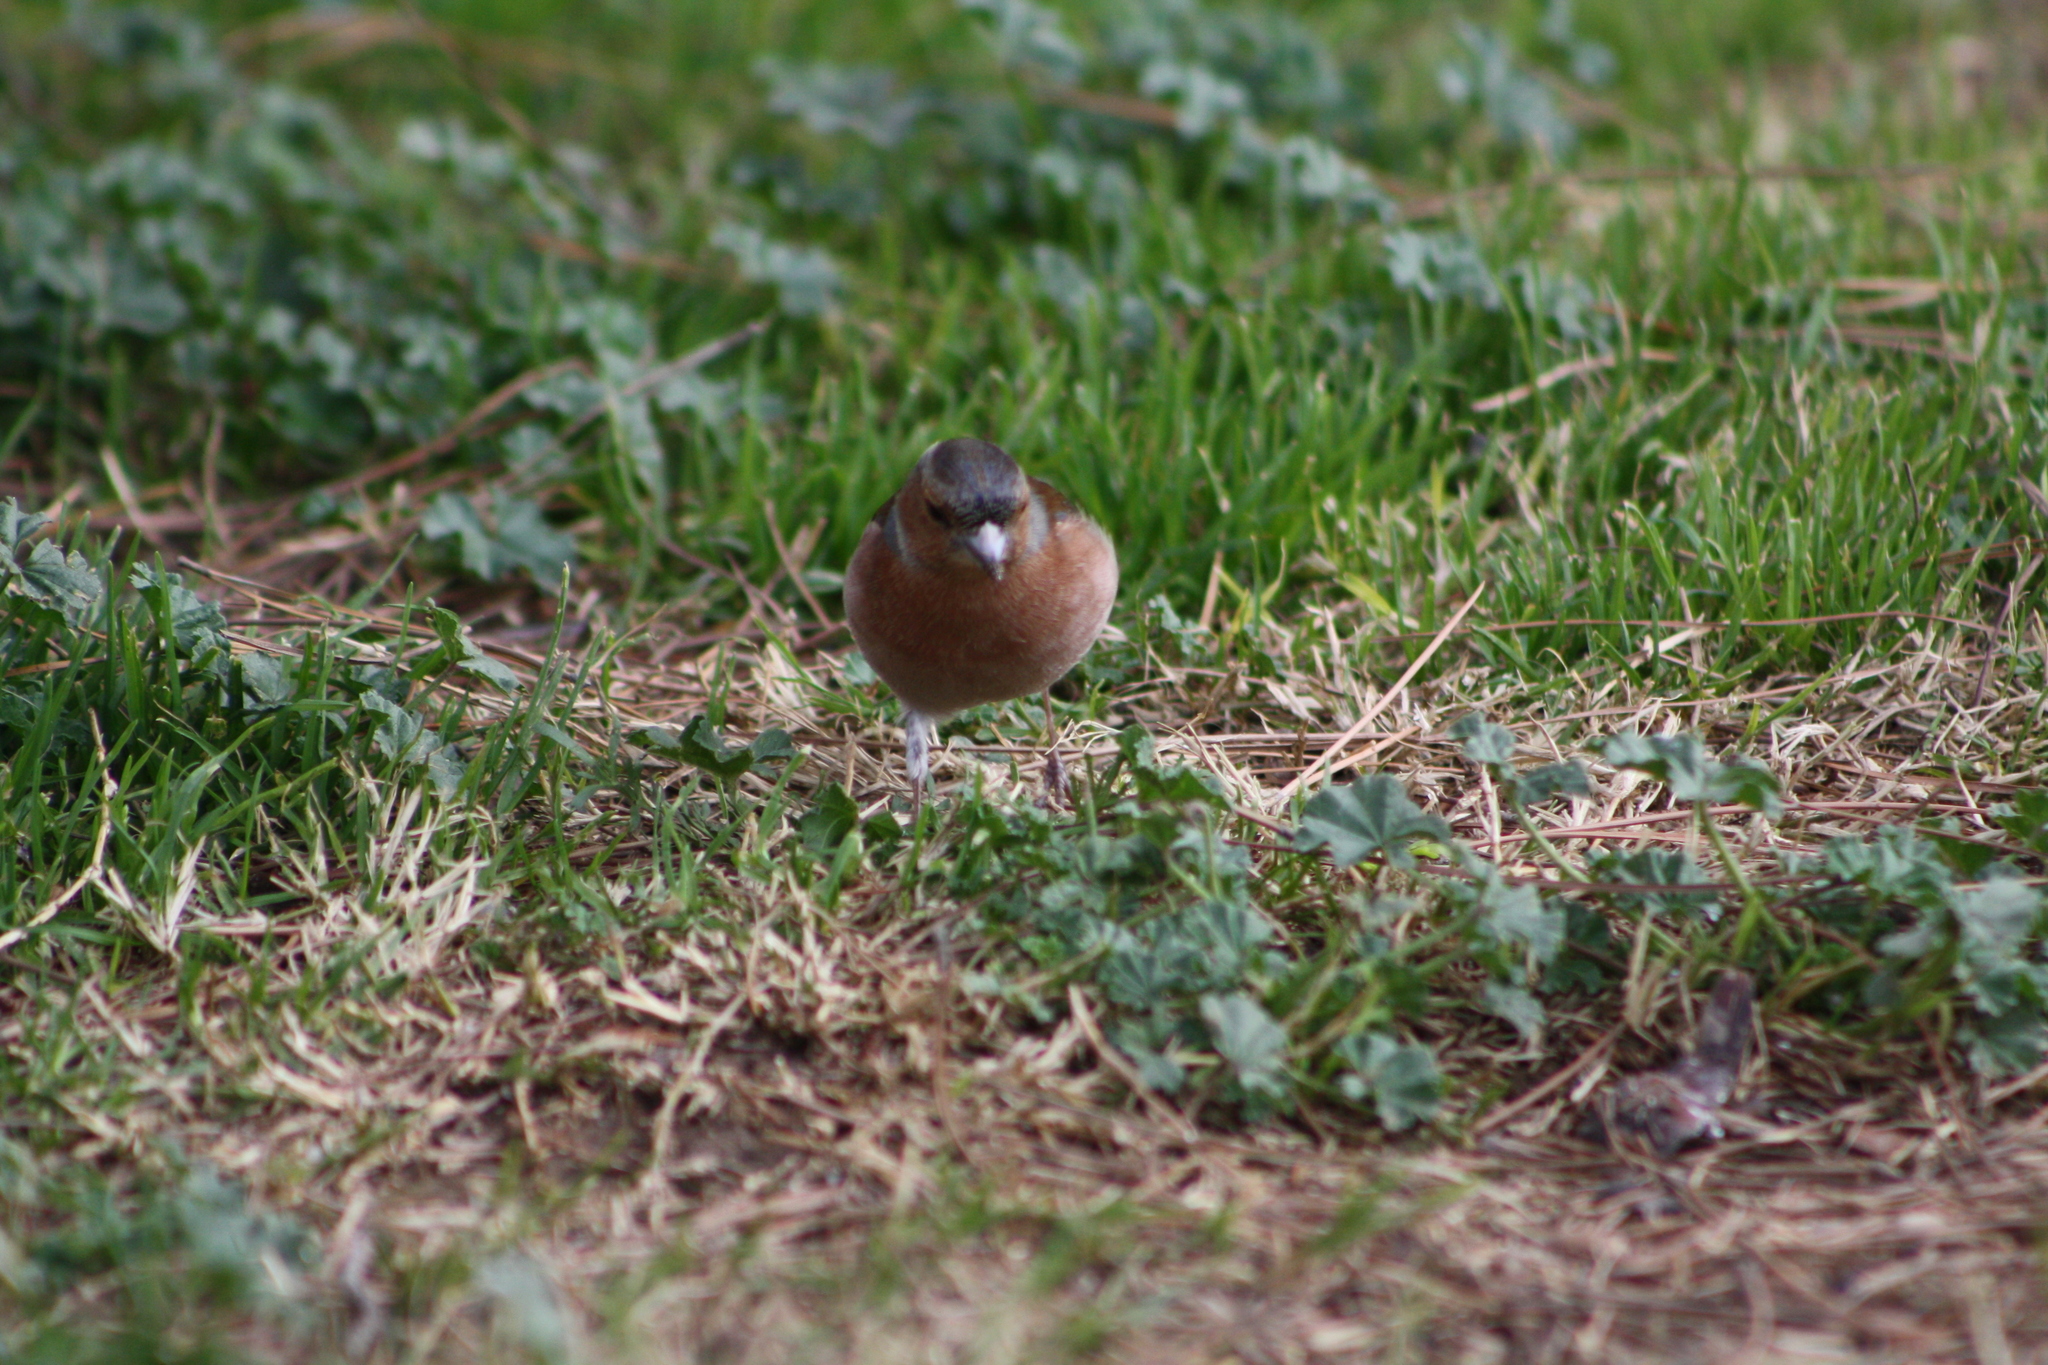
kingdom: Animalia
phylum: Chordata
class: Aves
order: Passeriformes
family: Fringillidae
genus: Fringilla
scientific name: Fringilla coelebs
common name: Common chaffinch
